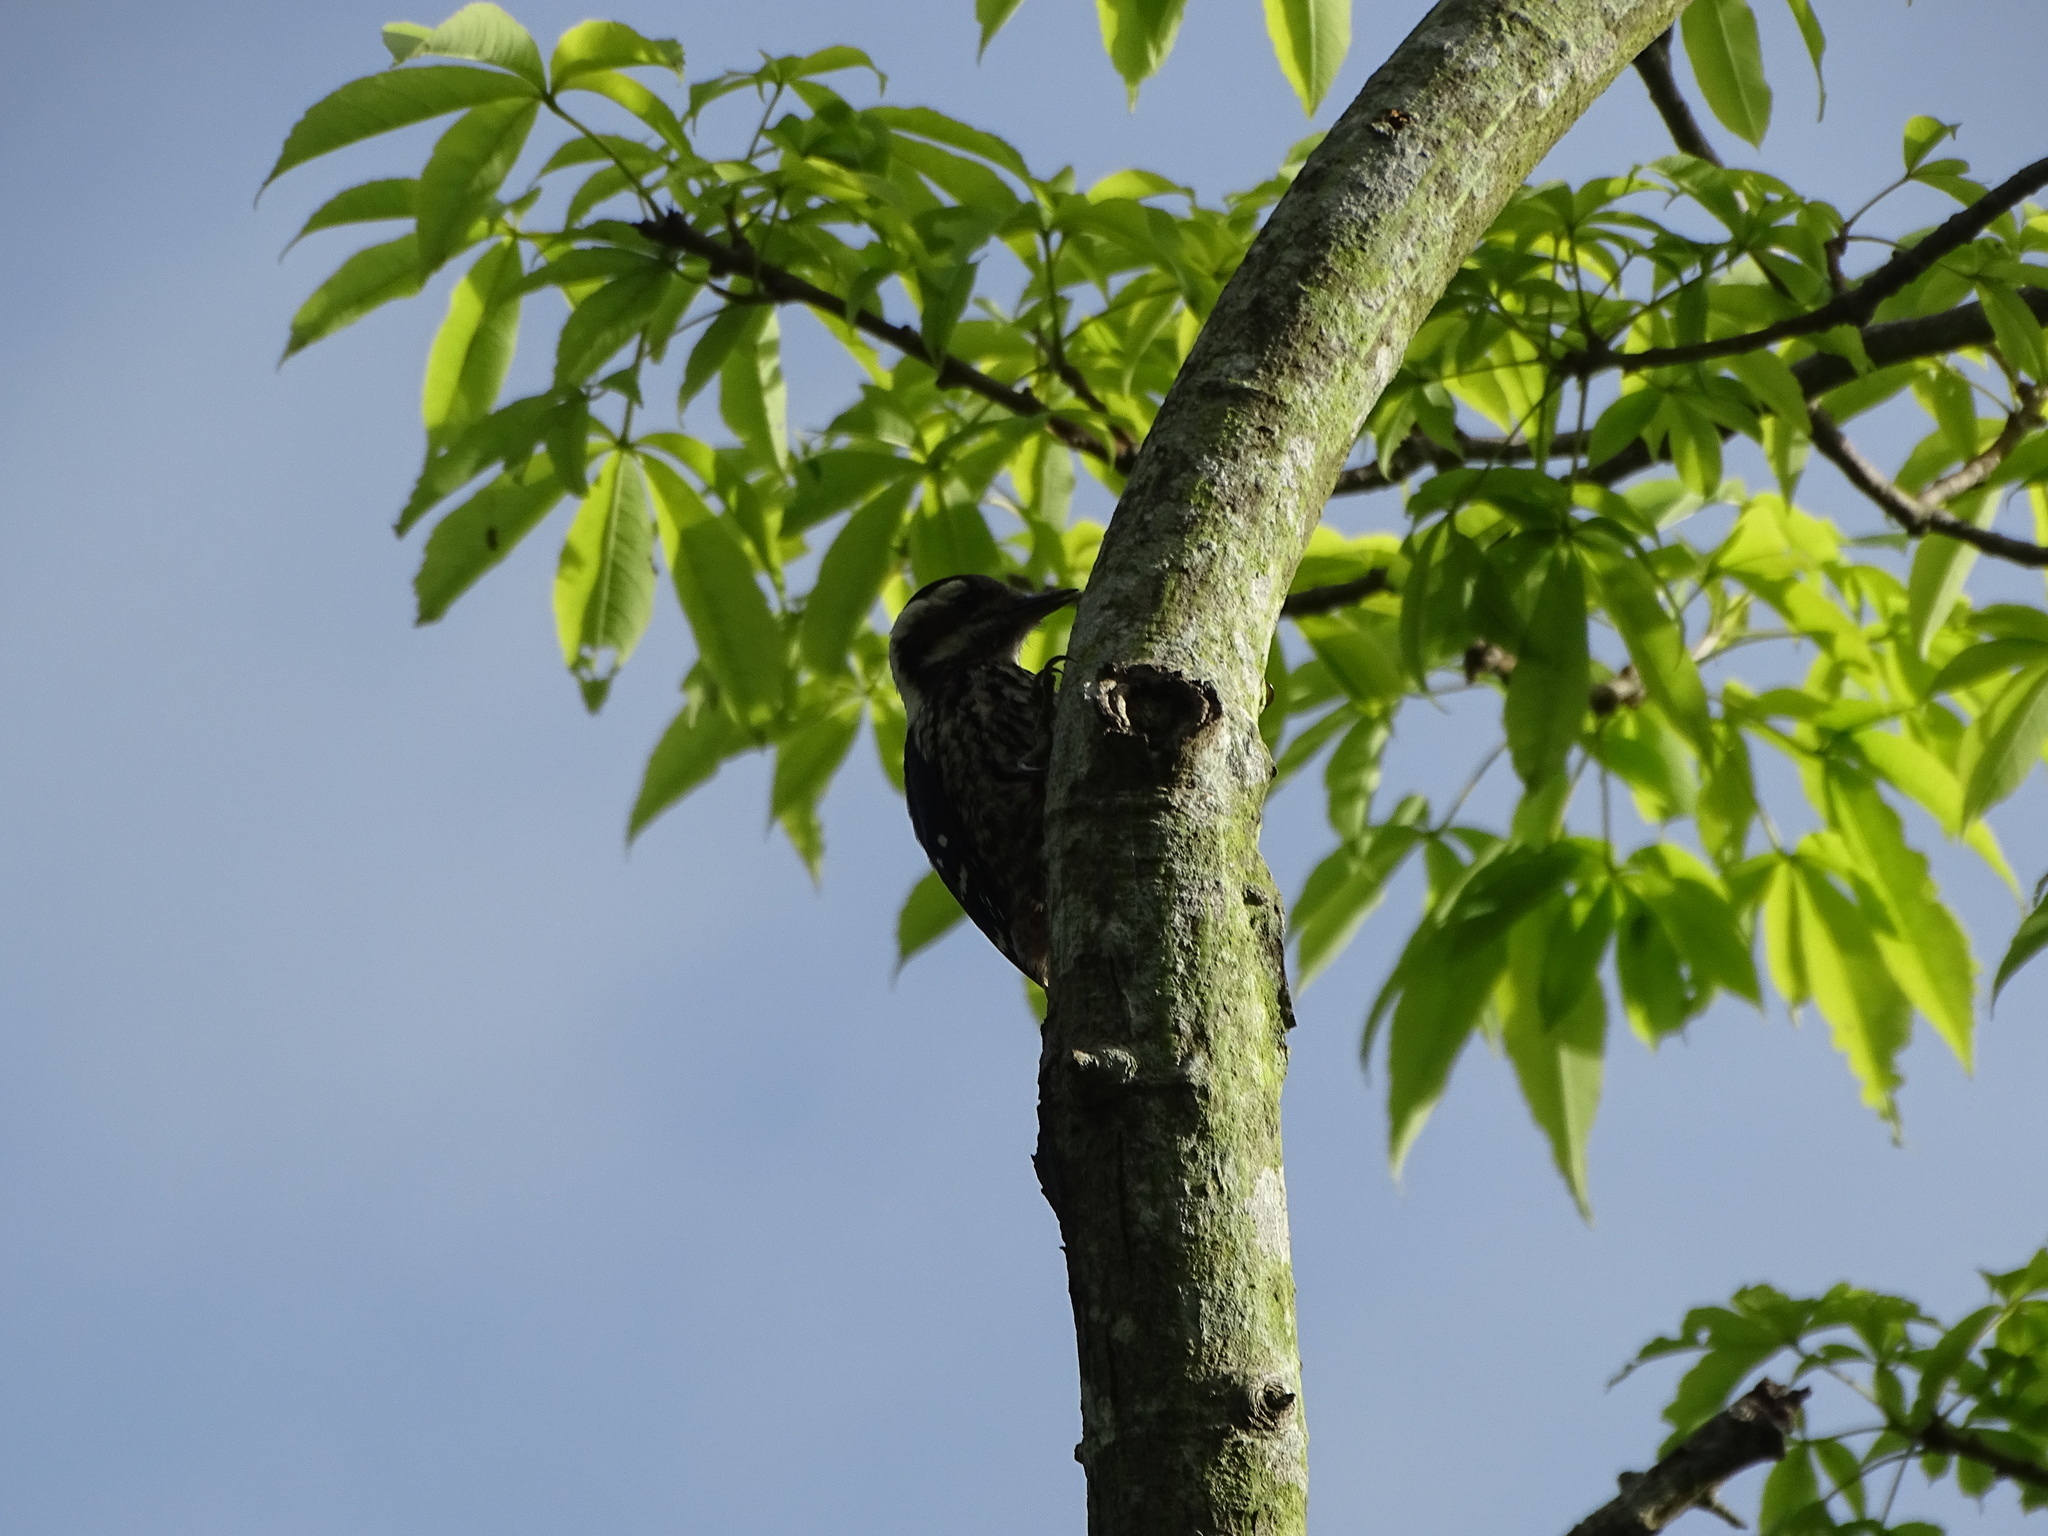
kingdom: Animalia
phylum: Chordata
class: Aves
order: Piciformes
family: Picidae
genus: Yungipicus
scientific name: Yungipicus canicapillus
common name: Grey-capped pygmy woodpecker
